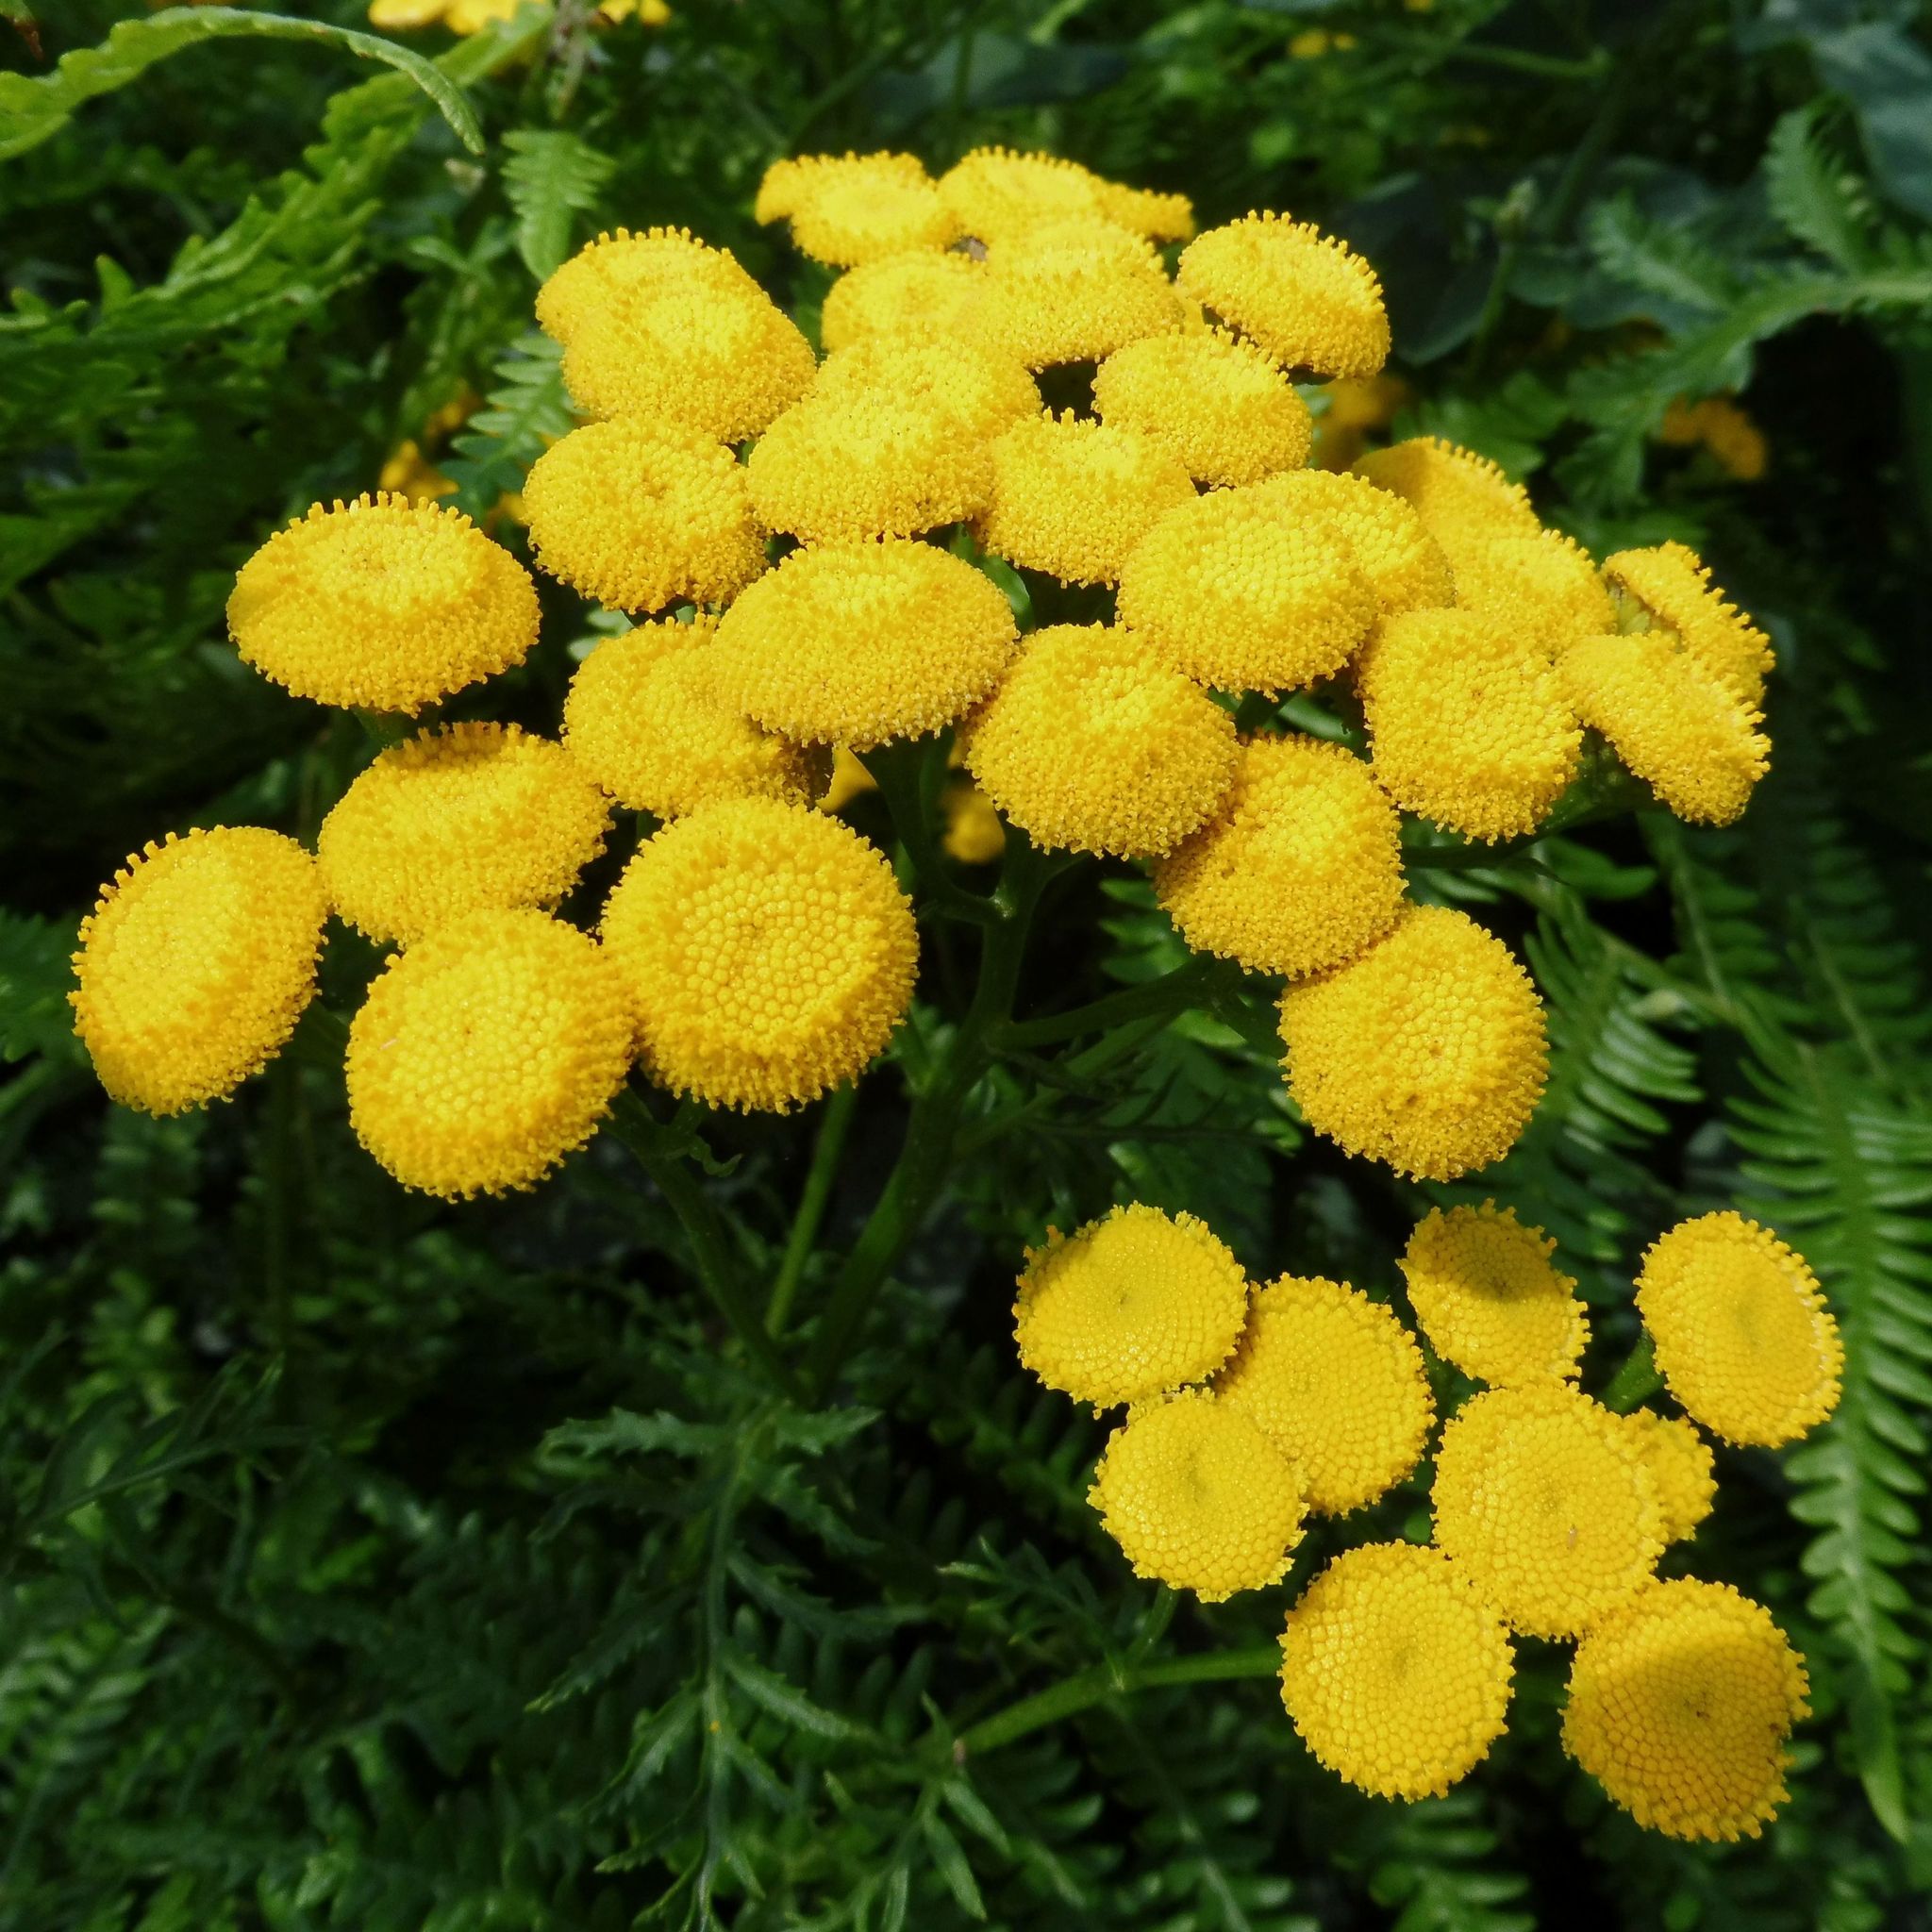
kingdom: Plantae
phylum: Tracheophyta
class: Magnoliopsida
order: Asterales
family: Asteraceae
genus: Tanacetum
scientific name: Tanacetum vulgare
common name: Common tansy
